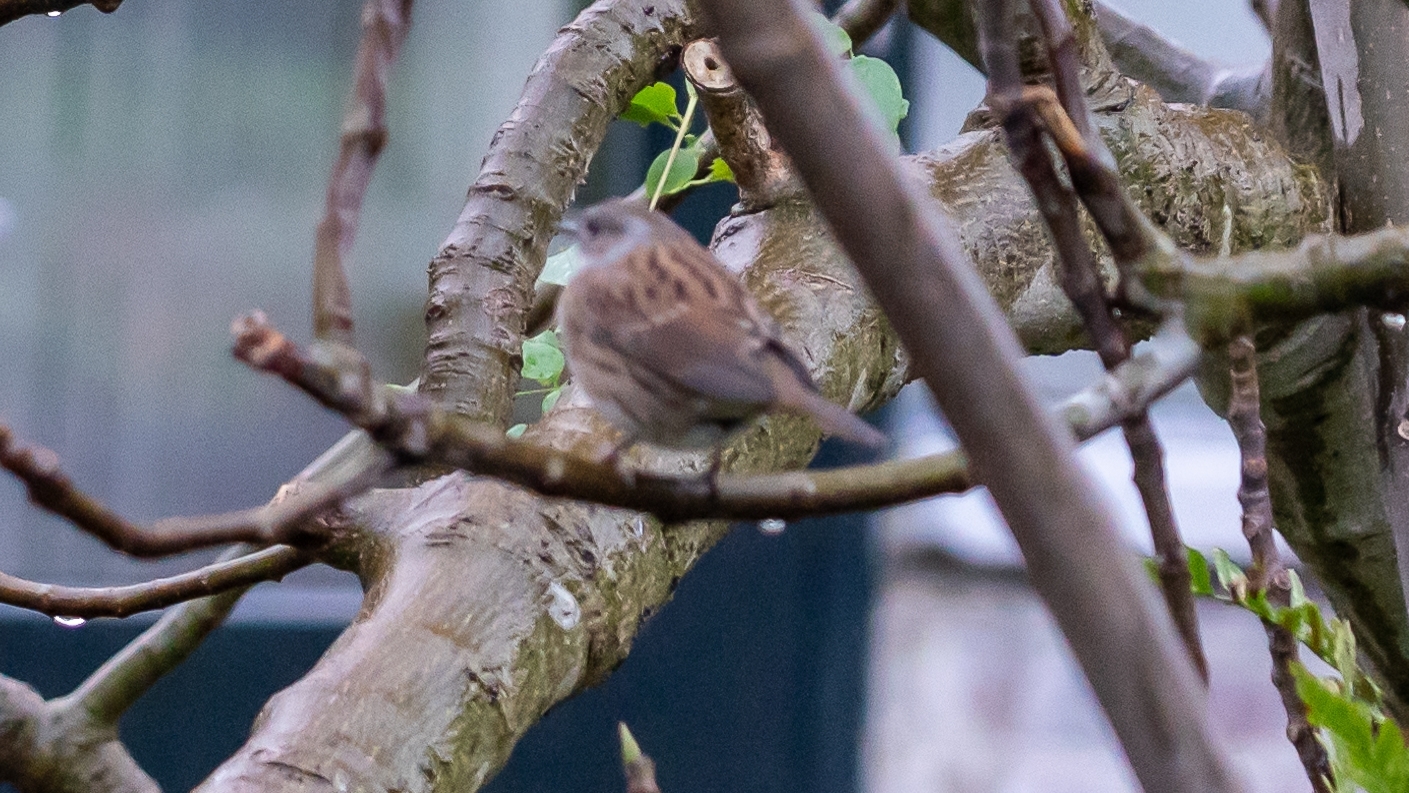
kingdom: Animalia
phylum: Chordata
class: Aves
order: Passeriformes
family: Prunellidae
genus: Prunella
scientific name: Prunella modularis
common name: Dunnock
